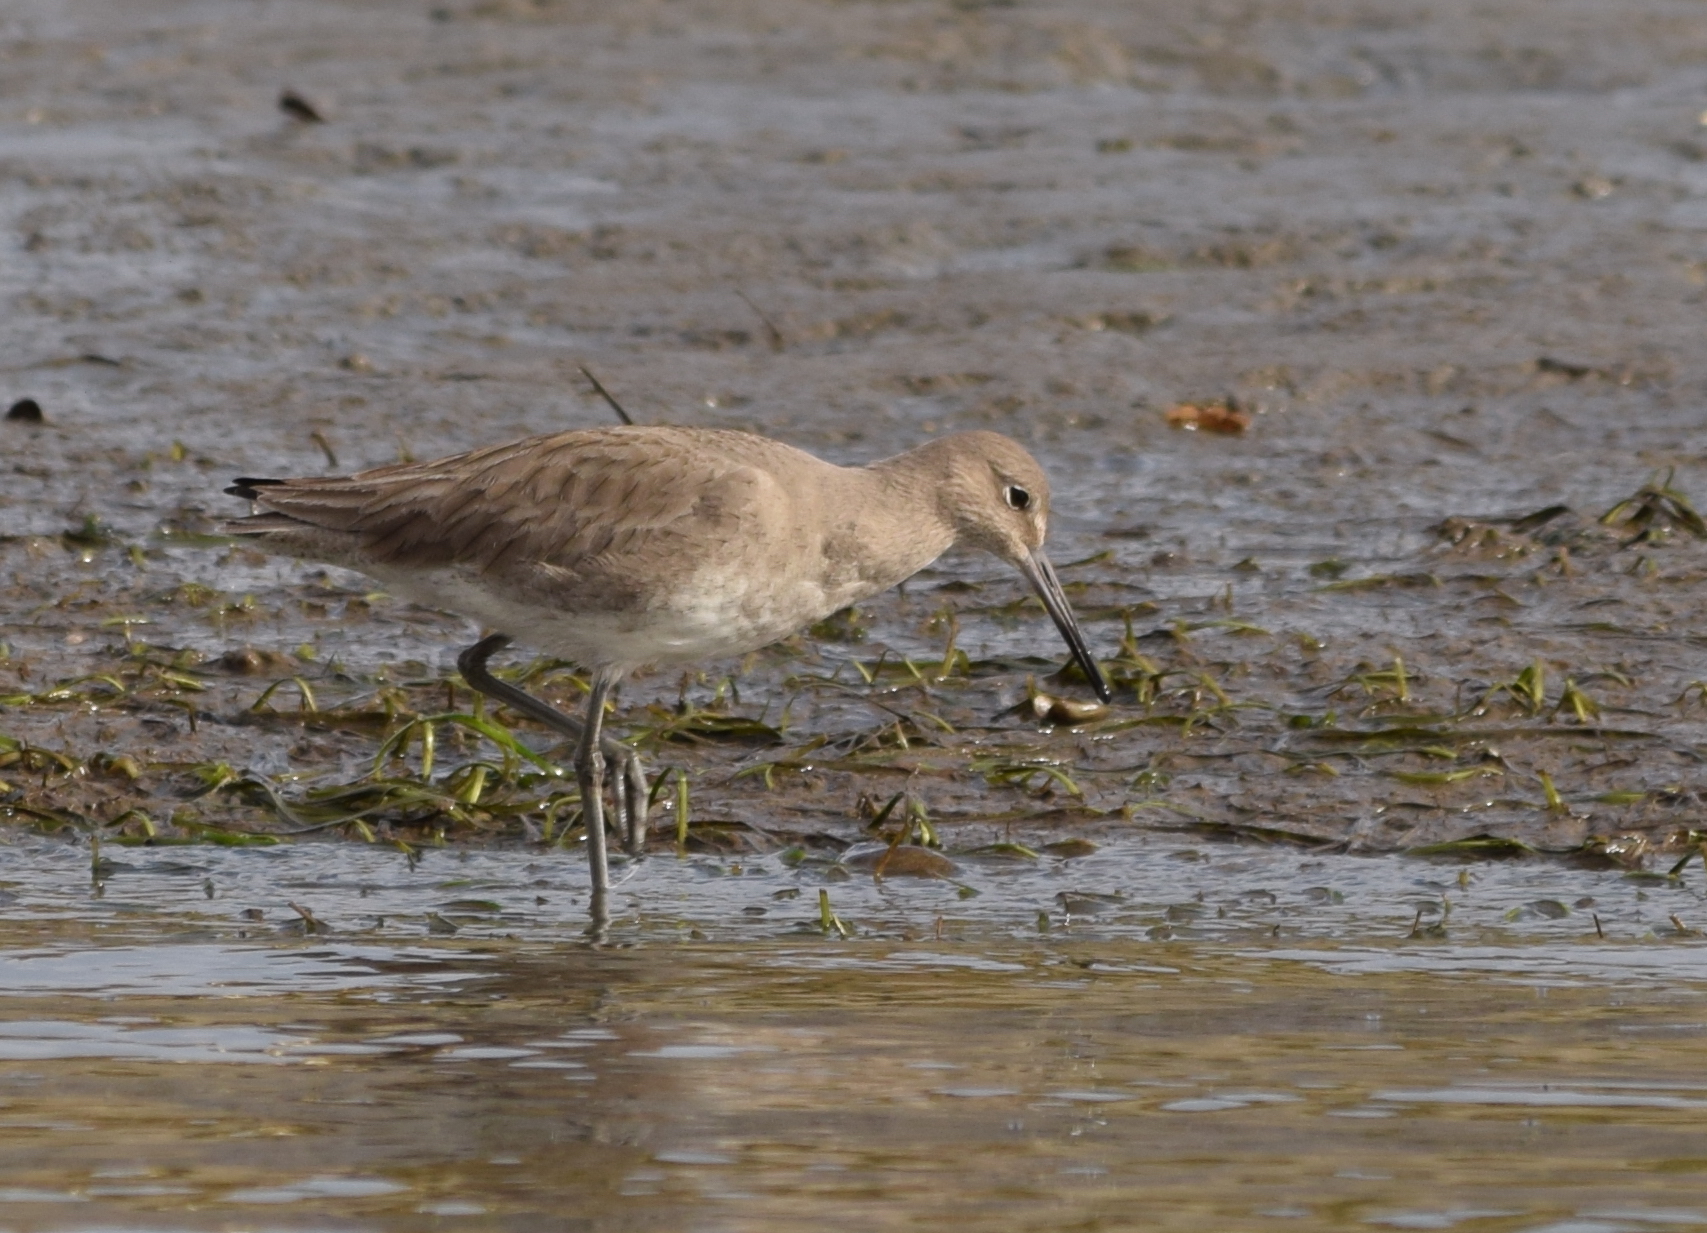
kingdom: Animalia
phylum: Chordata
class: Aves
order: Charadriiformes
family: Scolopacidae
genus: Tringa
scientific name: Tringa semipalmata
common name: Willet
